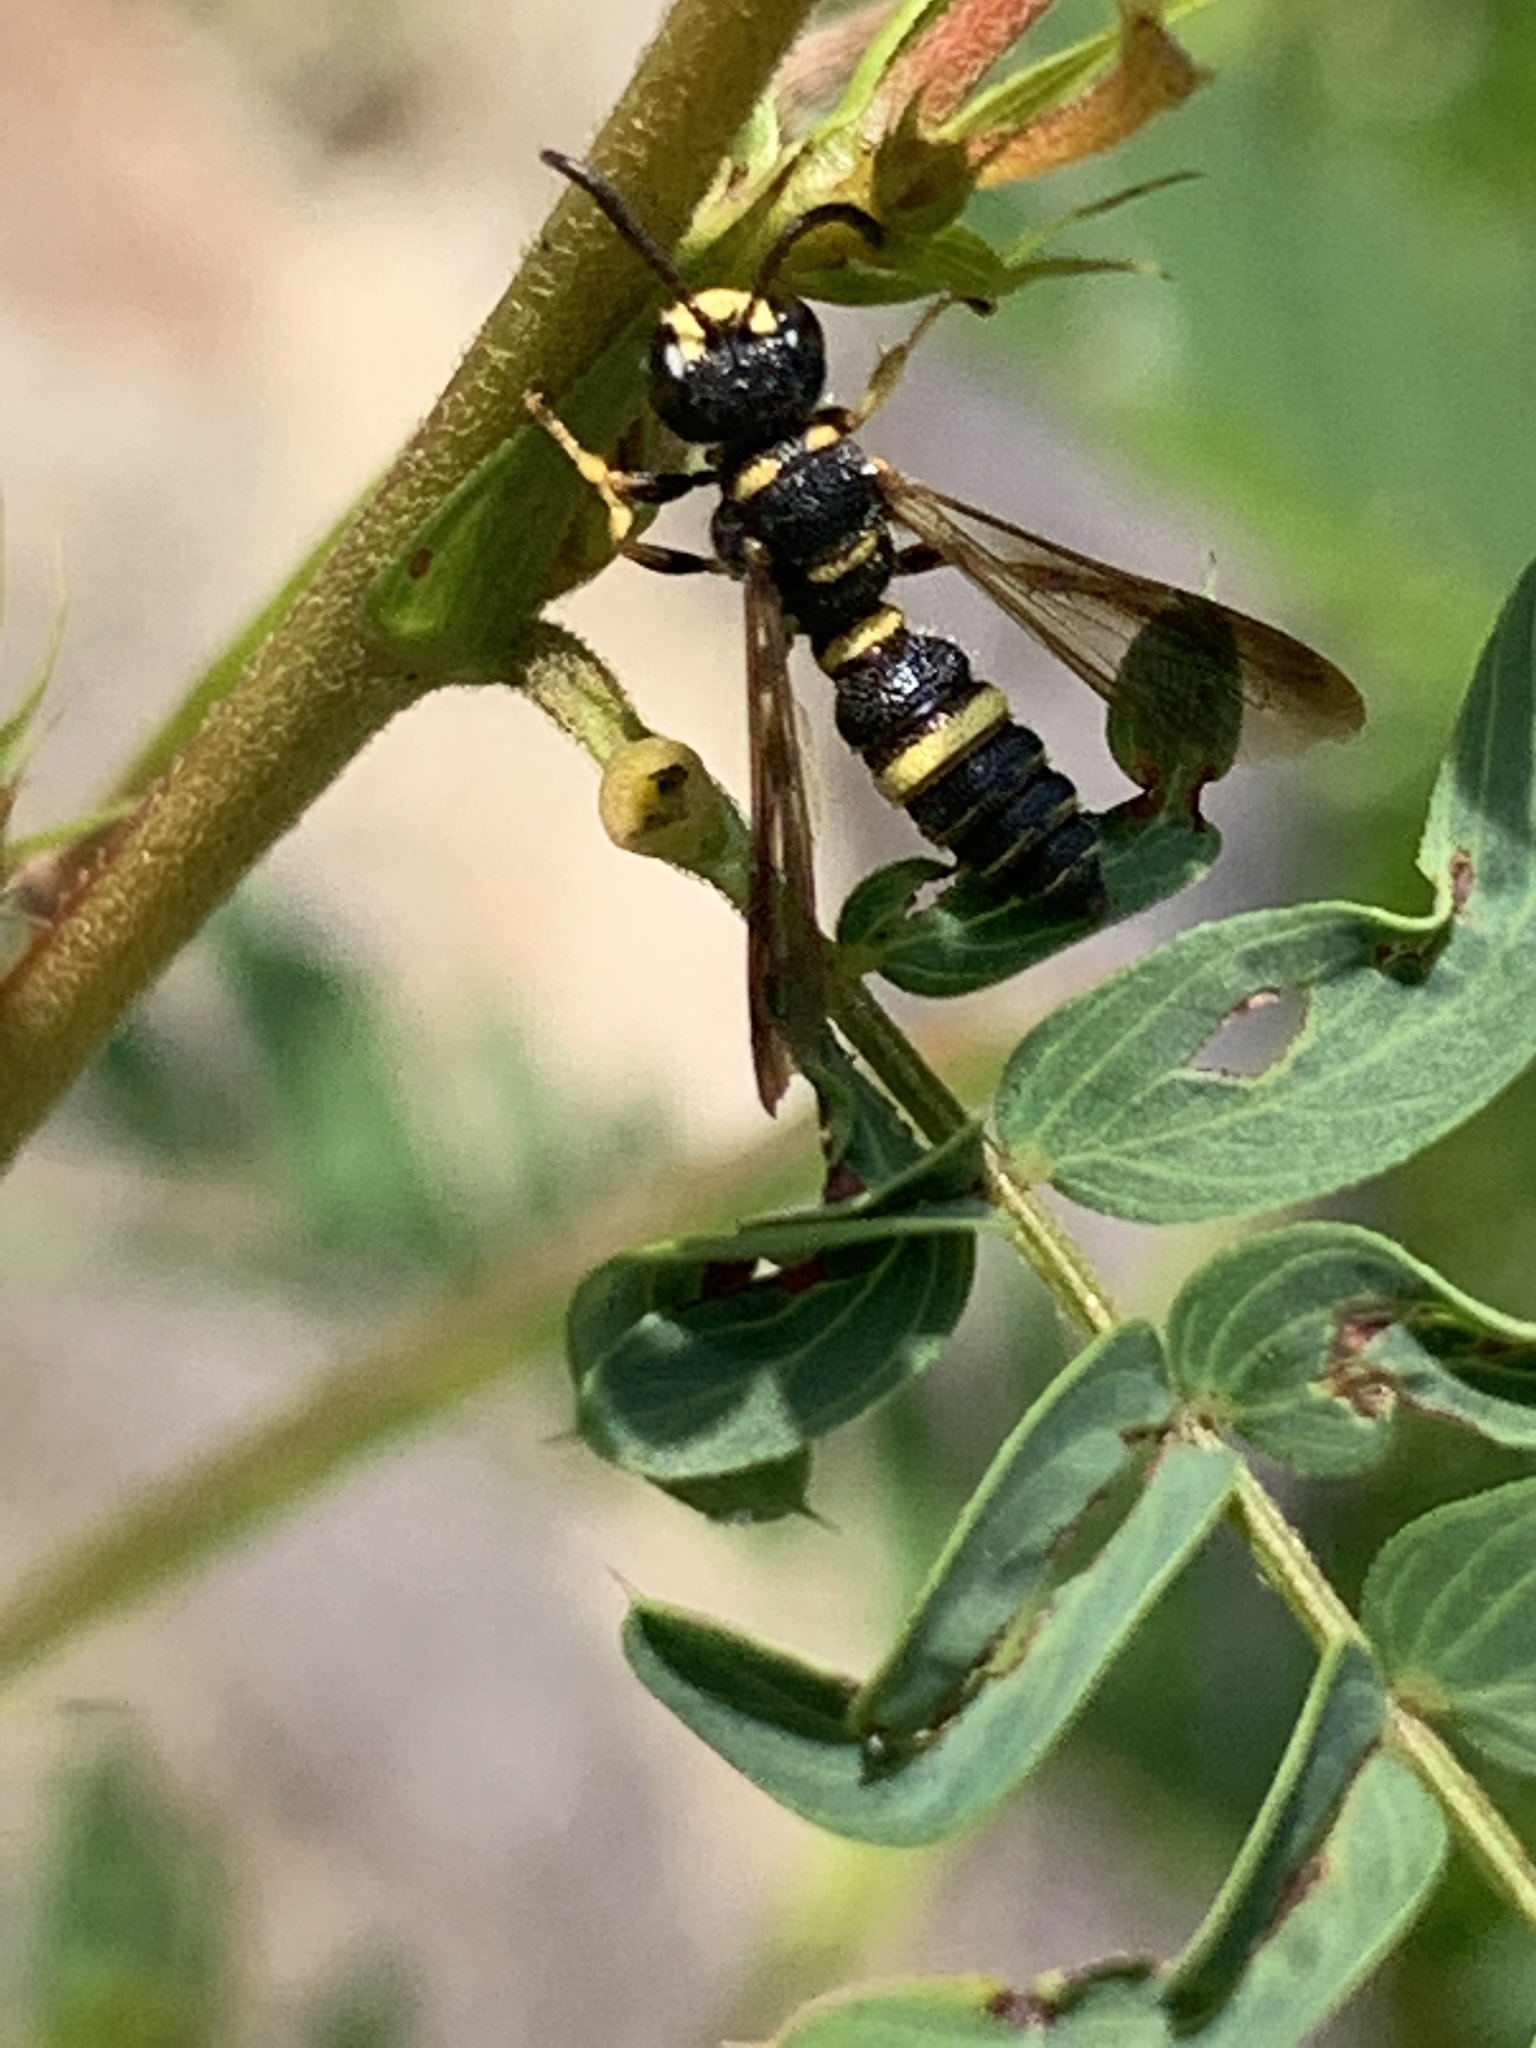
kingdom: Animalia
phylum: Arthropoda
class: Insecta
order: Hymenoptera
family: Crabronidae
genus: Cerceris
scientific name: Cerceris insolita
